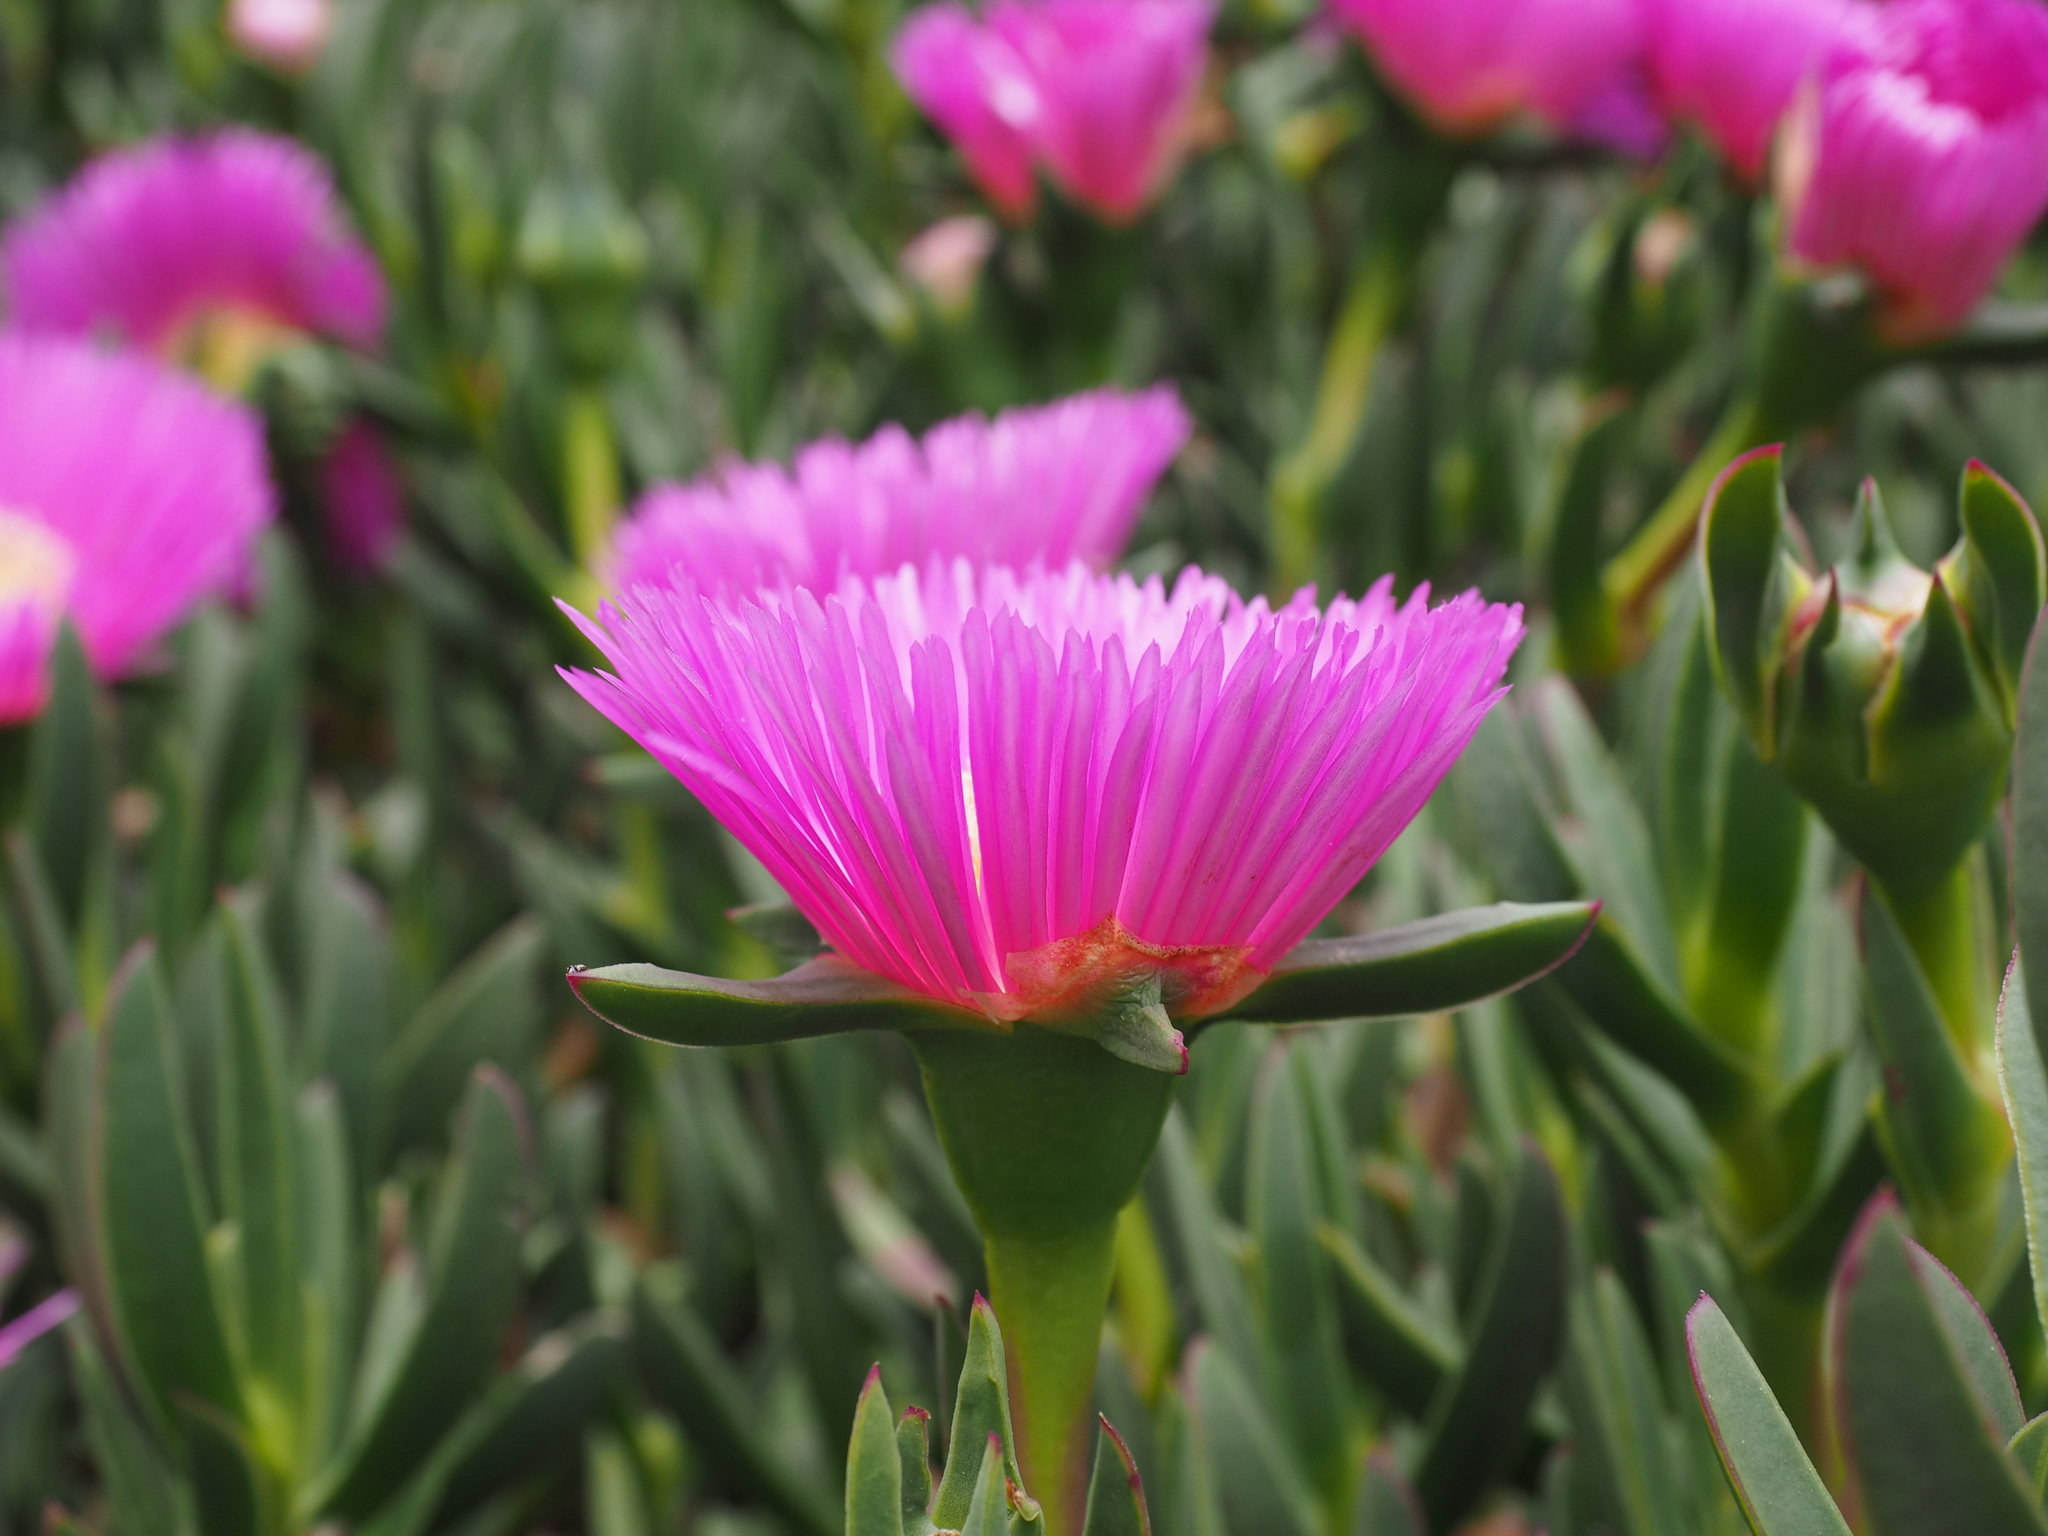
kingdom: Plantae
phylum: Tracheophyta
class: Magnoliopsida
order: Caryophyllales
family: Aizoaceae
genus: Carpobrotus
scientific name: Carpobrotus acinaciformis
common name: Sally-my-handsome
